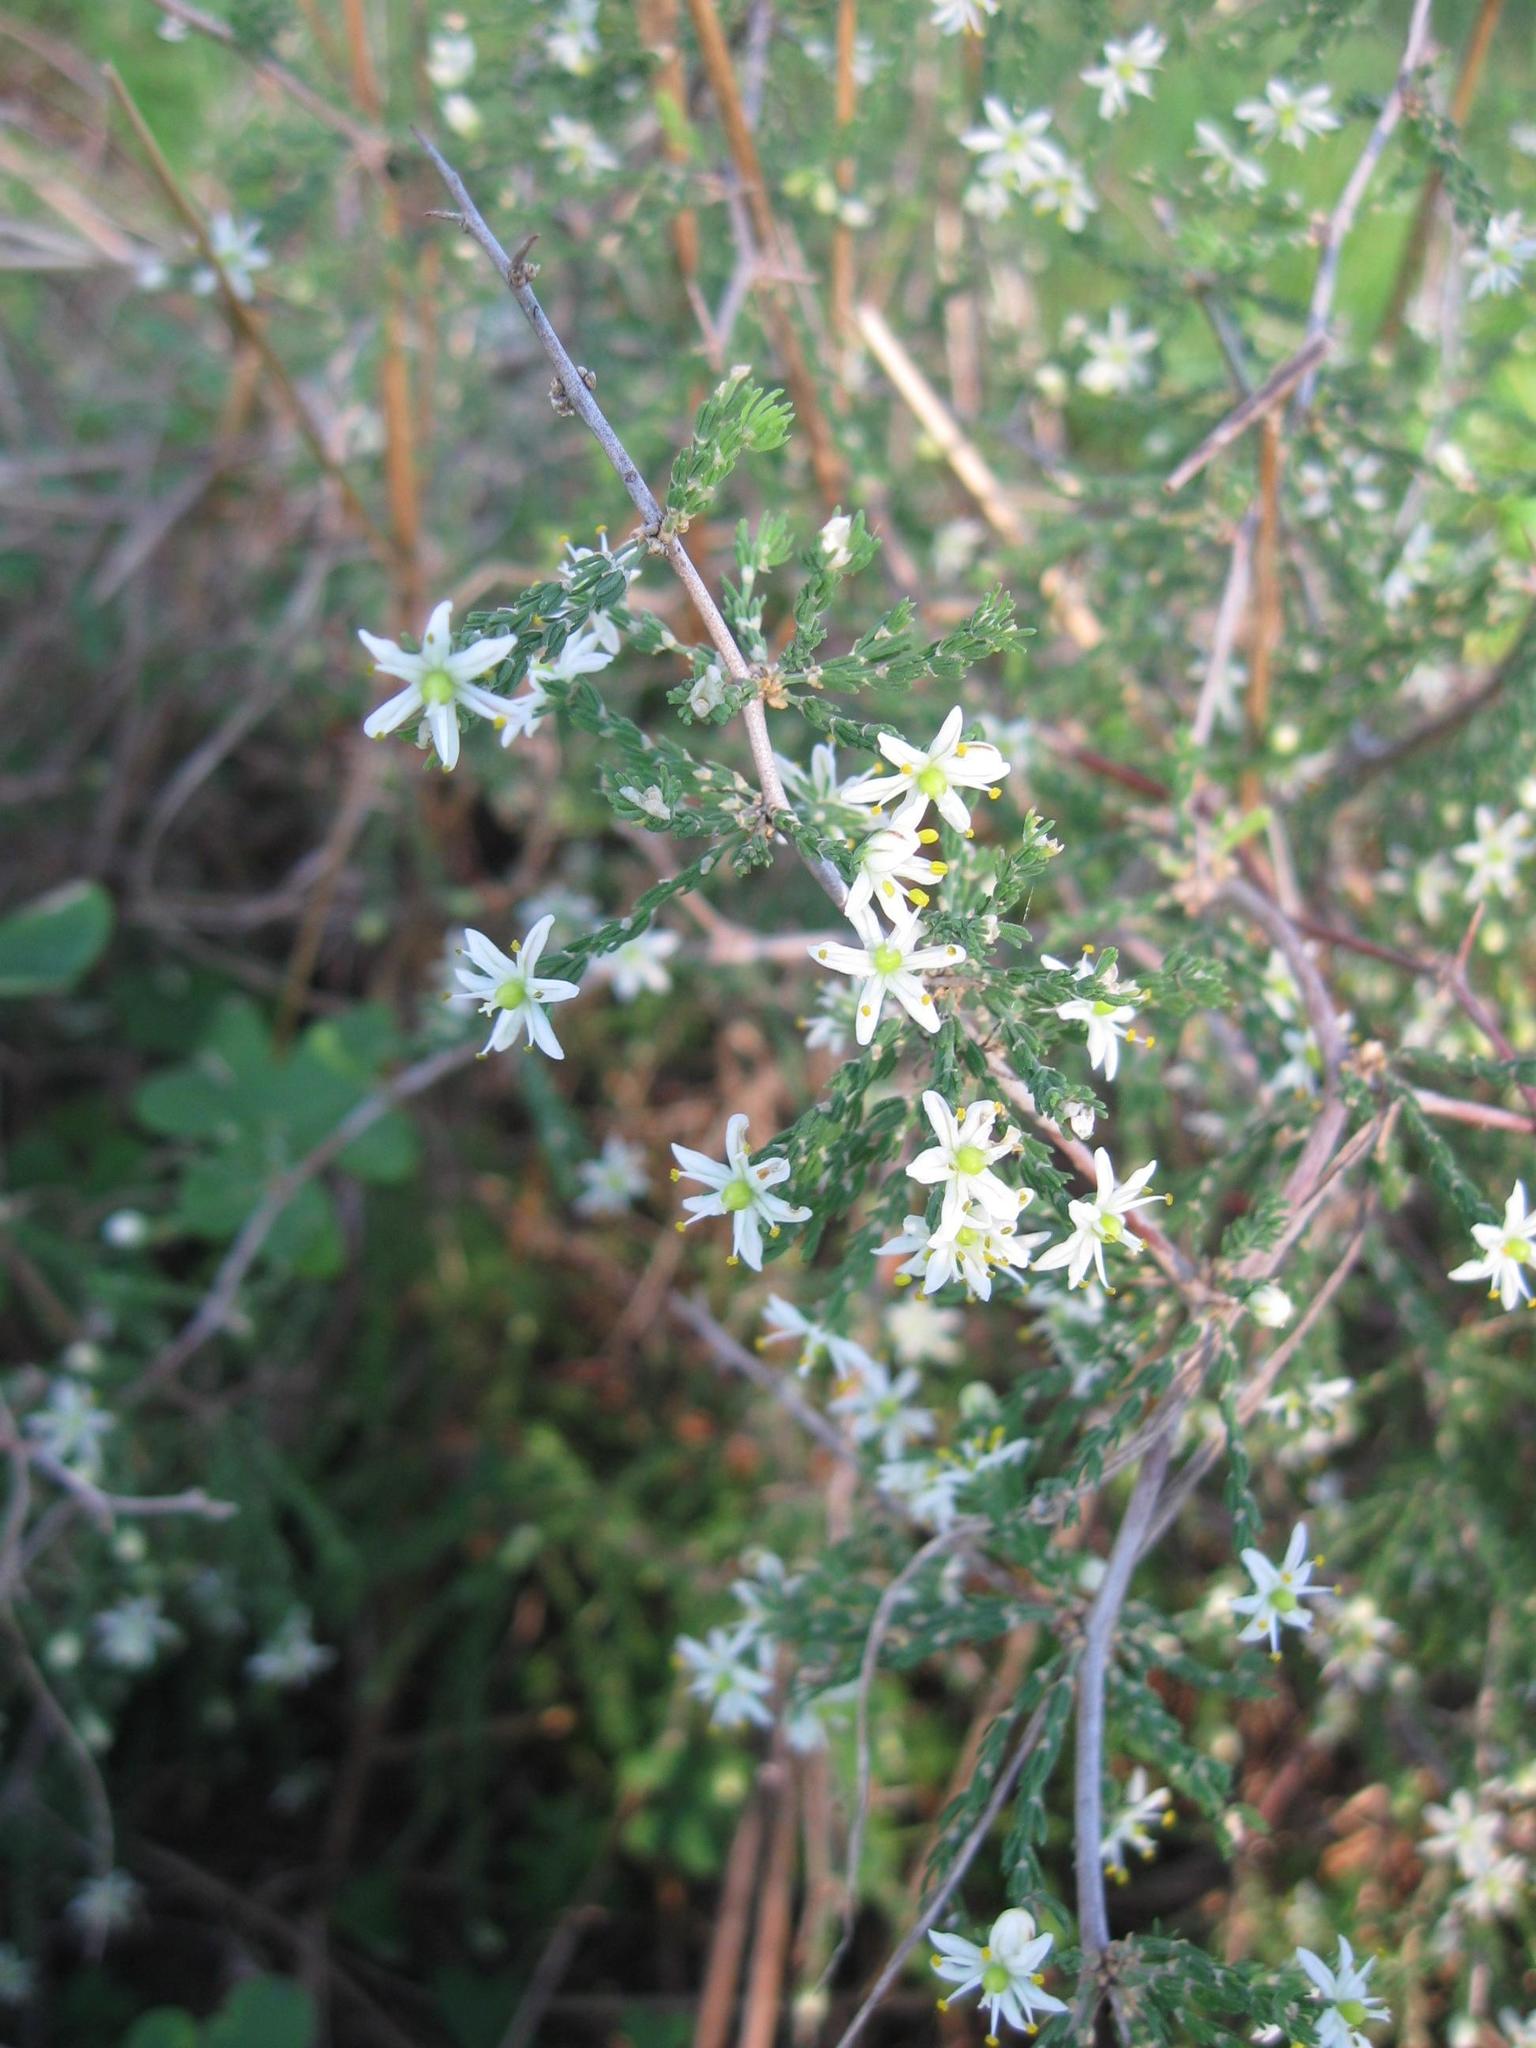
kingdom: Plantae
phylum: Tracheophyta
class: Liliopsida
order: Asparagales
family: Asparagaceae
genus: Asparagus
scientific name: Asparagus capensis
